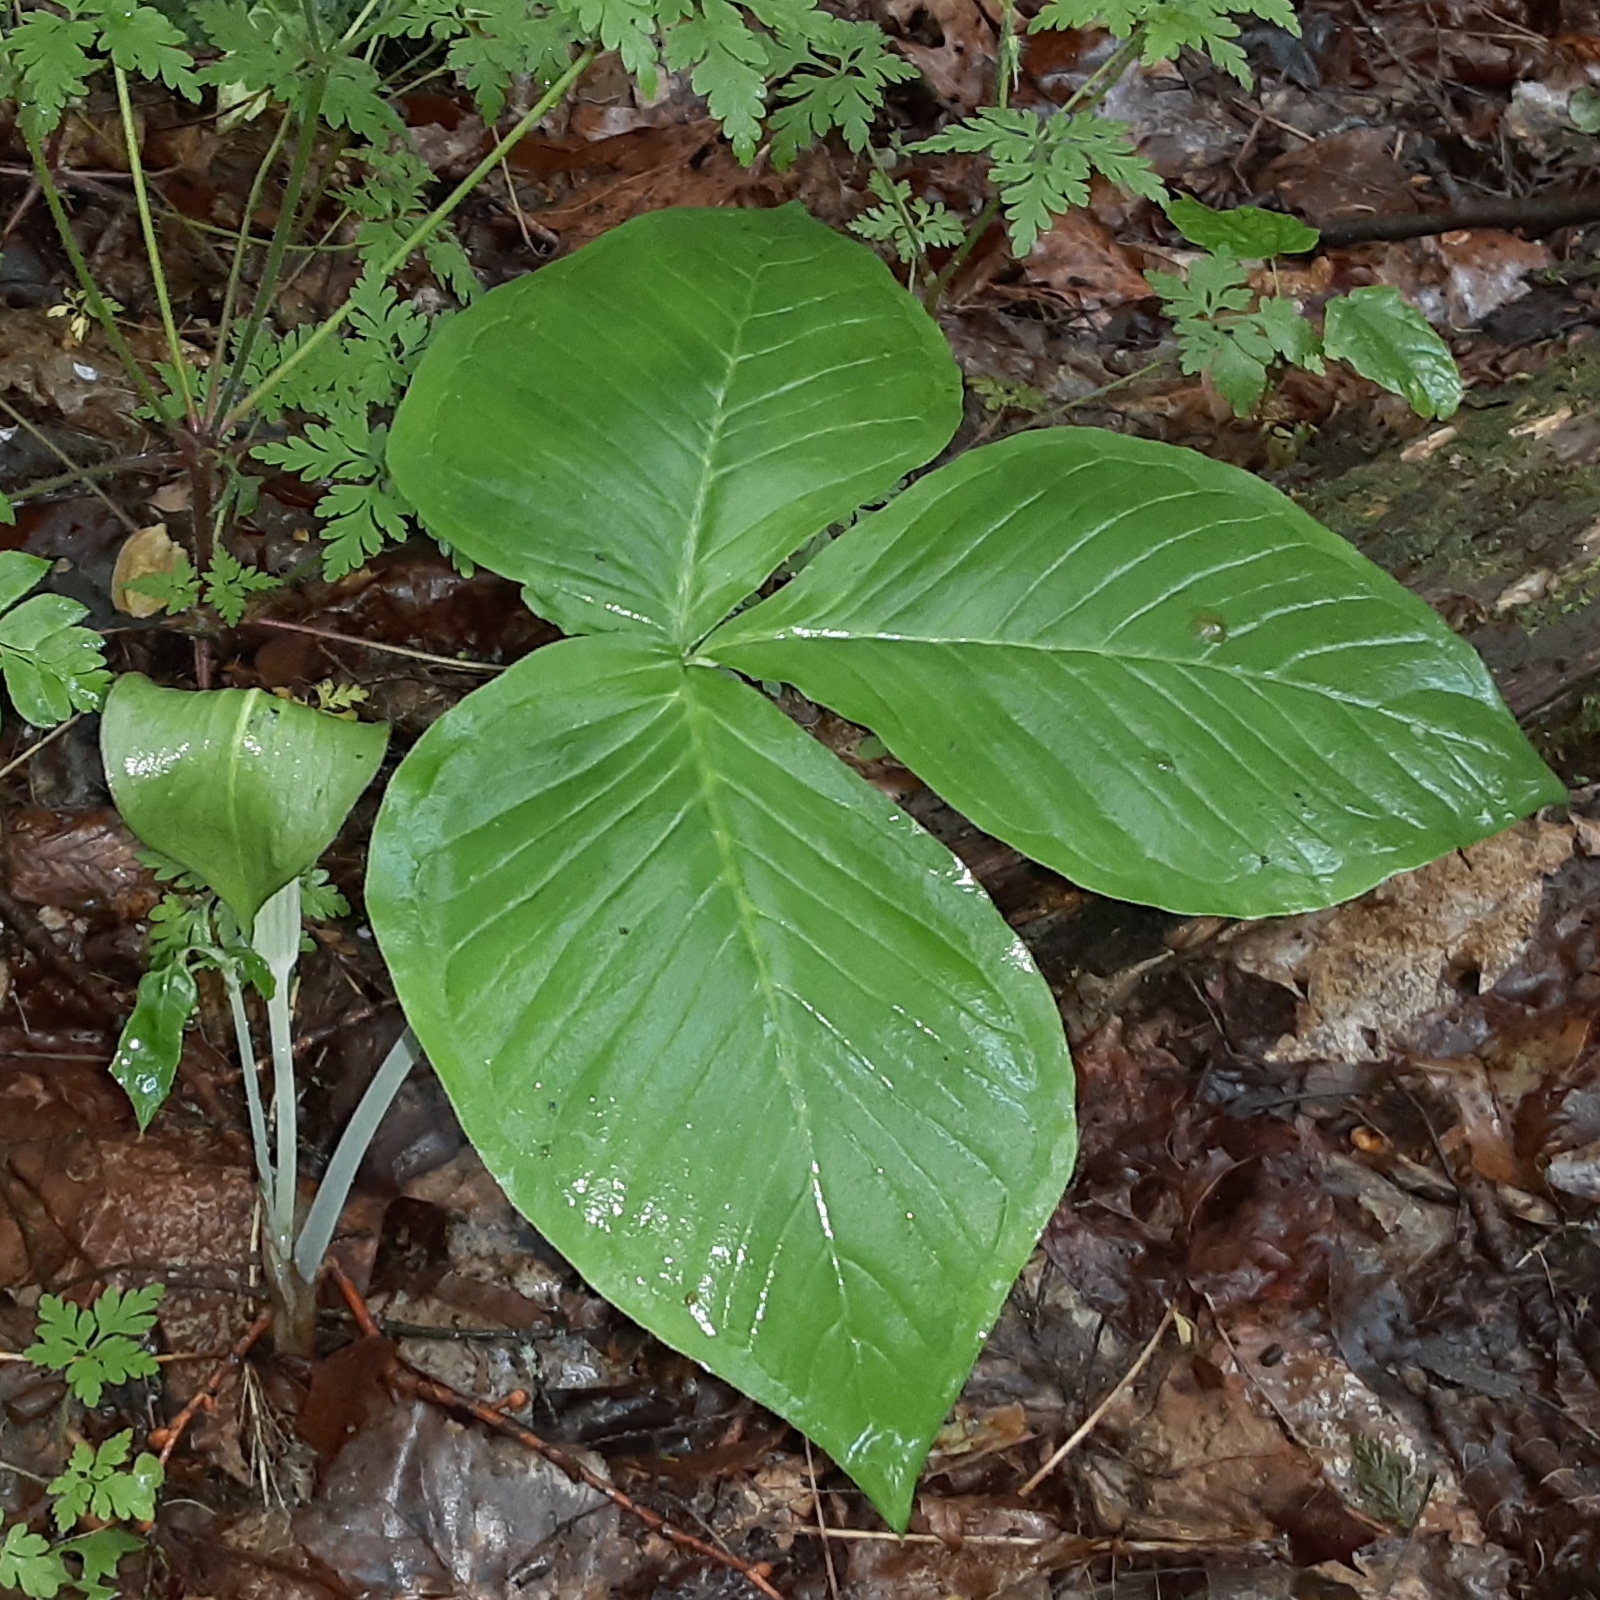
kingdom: Plantae
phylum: Tracheophyta
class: Liliopsida
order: Alismatales
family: Araceae
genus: Arisaema
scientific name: Arisaema triphyllum
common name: Jack-in-the-pulpit
